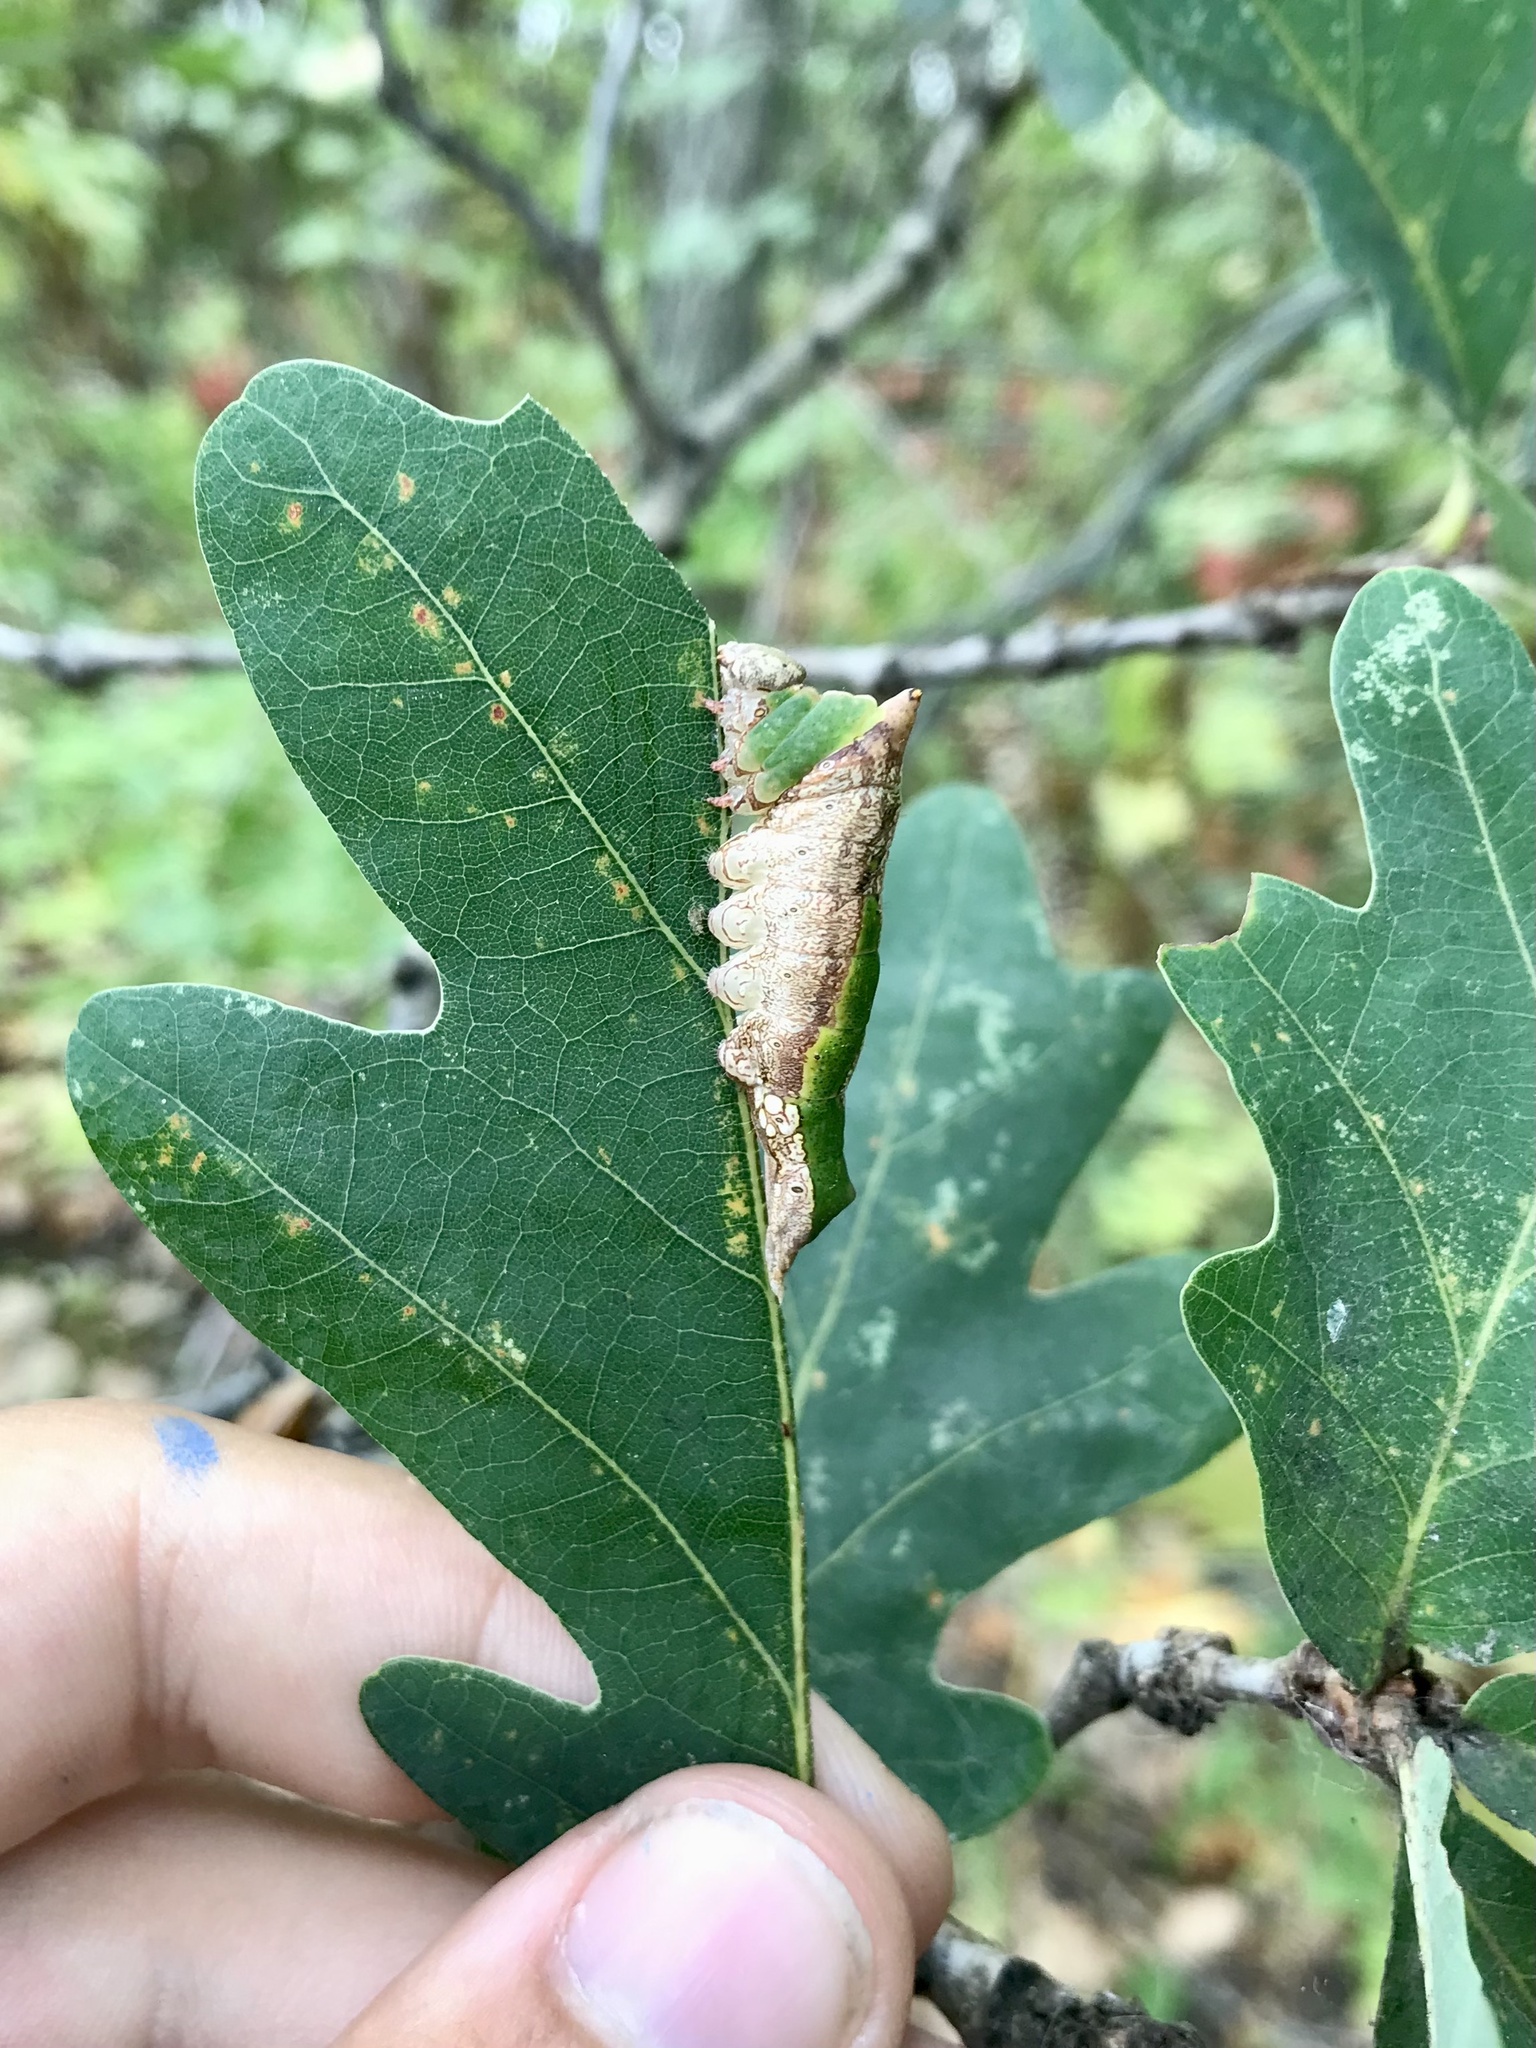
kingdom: Animalia
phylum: Arthropoda
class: Insecta
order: Lepidoptera
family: Notodontidae
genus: Oligocentria
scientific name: Oligocentria Ianassa lignicolor
